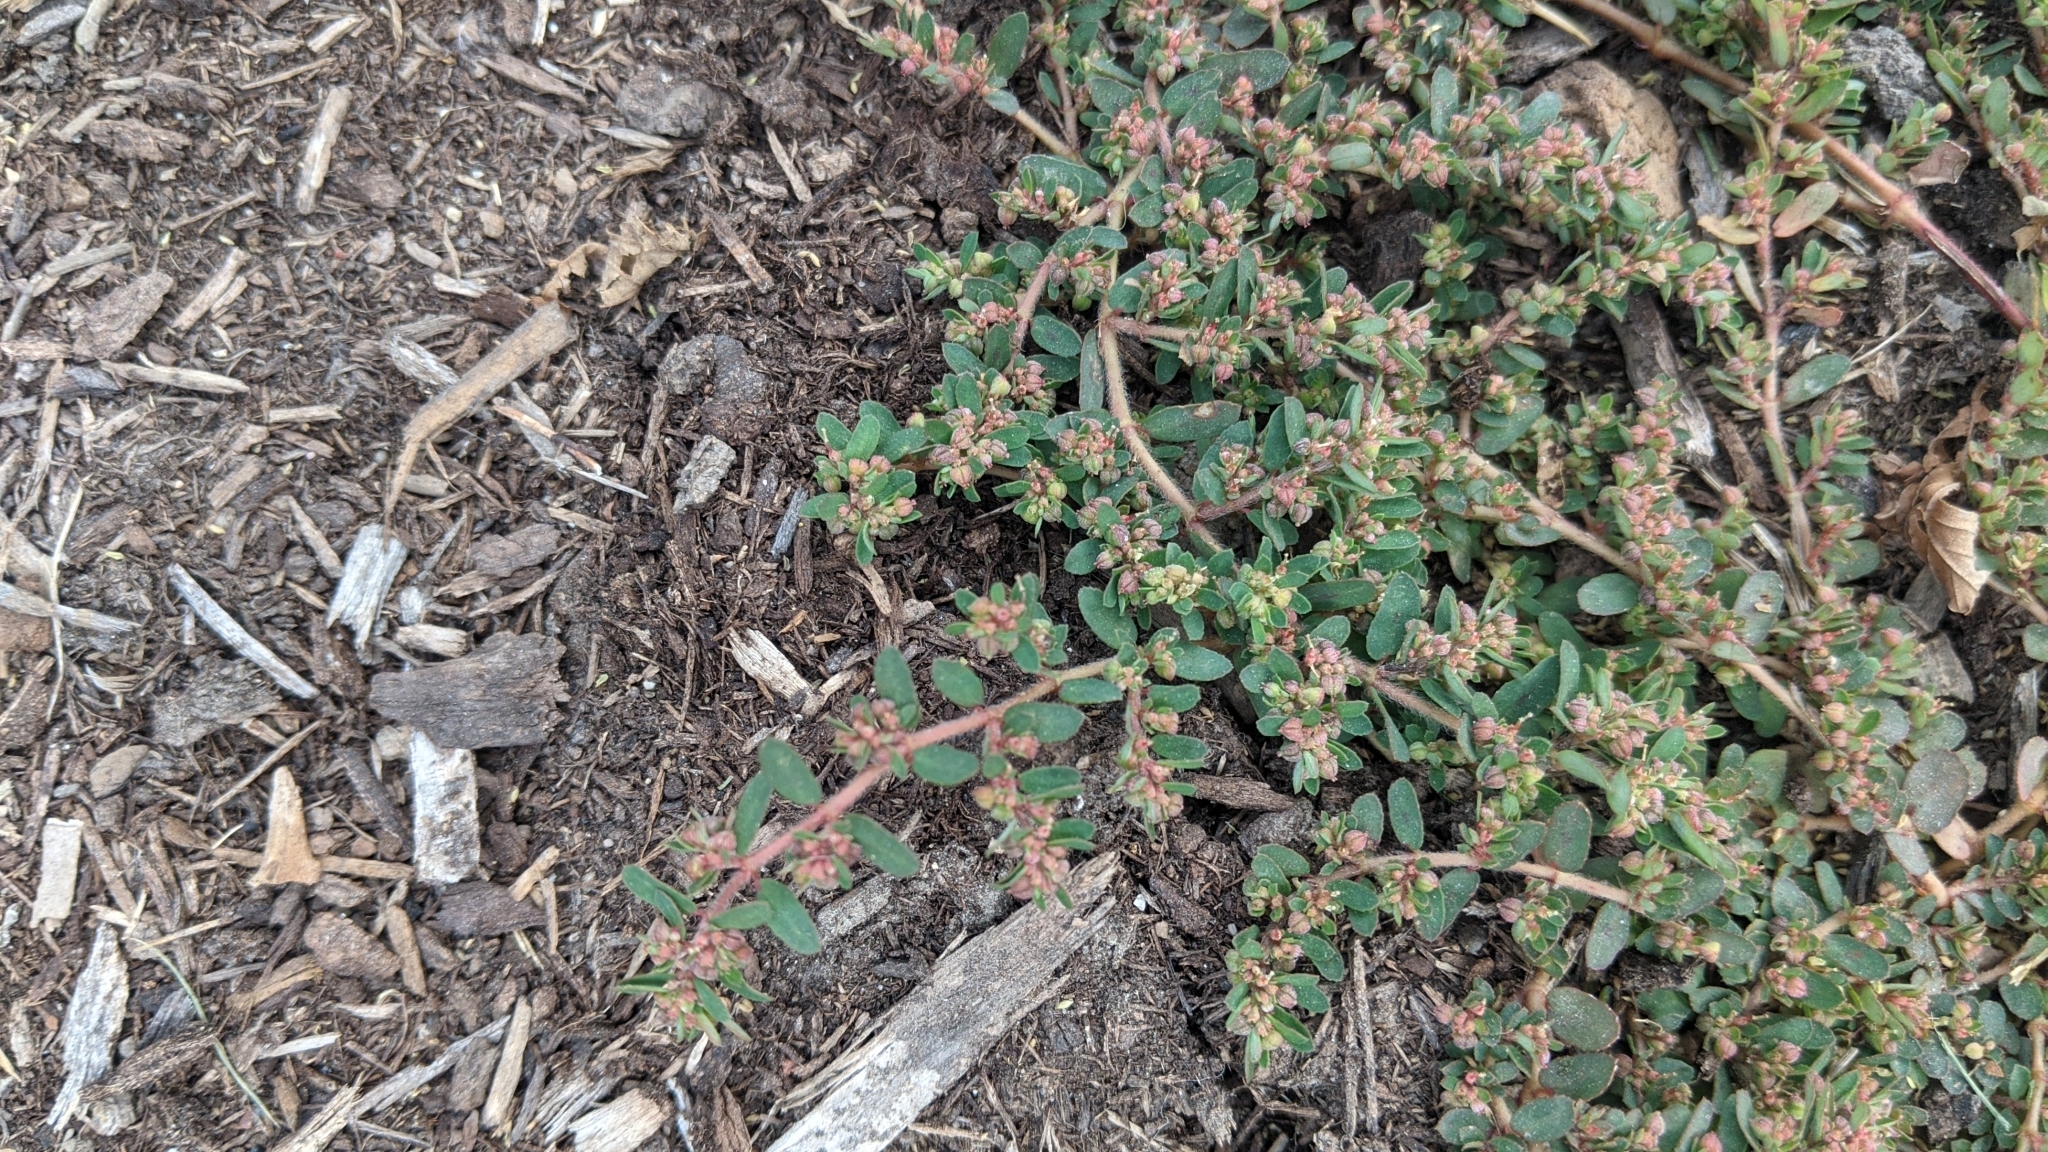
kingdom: Plantae
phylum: Tracheophyta
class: Magnoliopsida
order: Malpighiales
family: Euphorbiaceae
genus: Euphorbia
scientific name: Euphorbia maculata
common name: Spotted spurge
